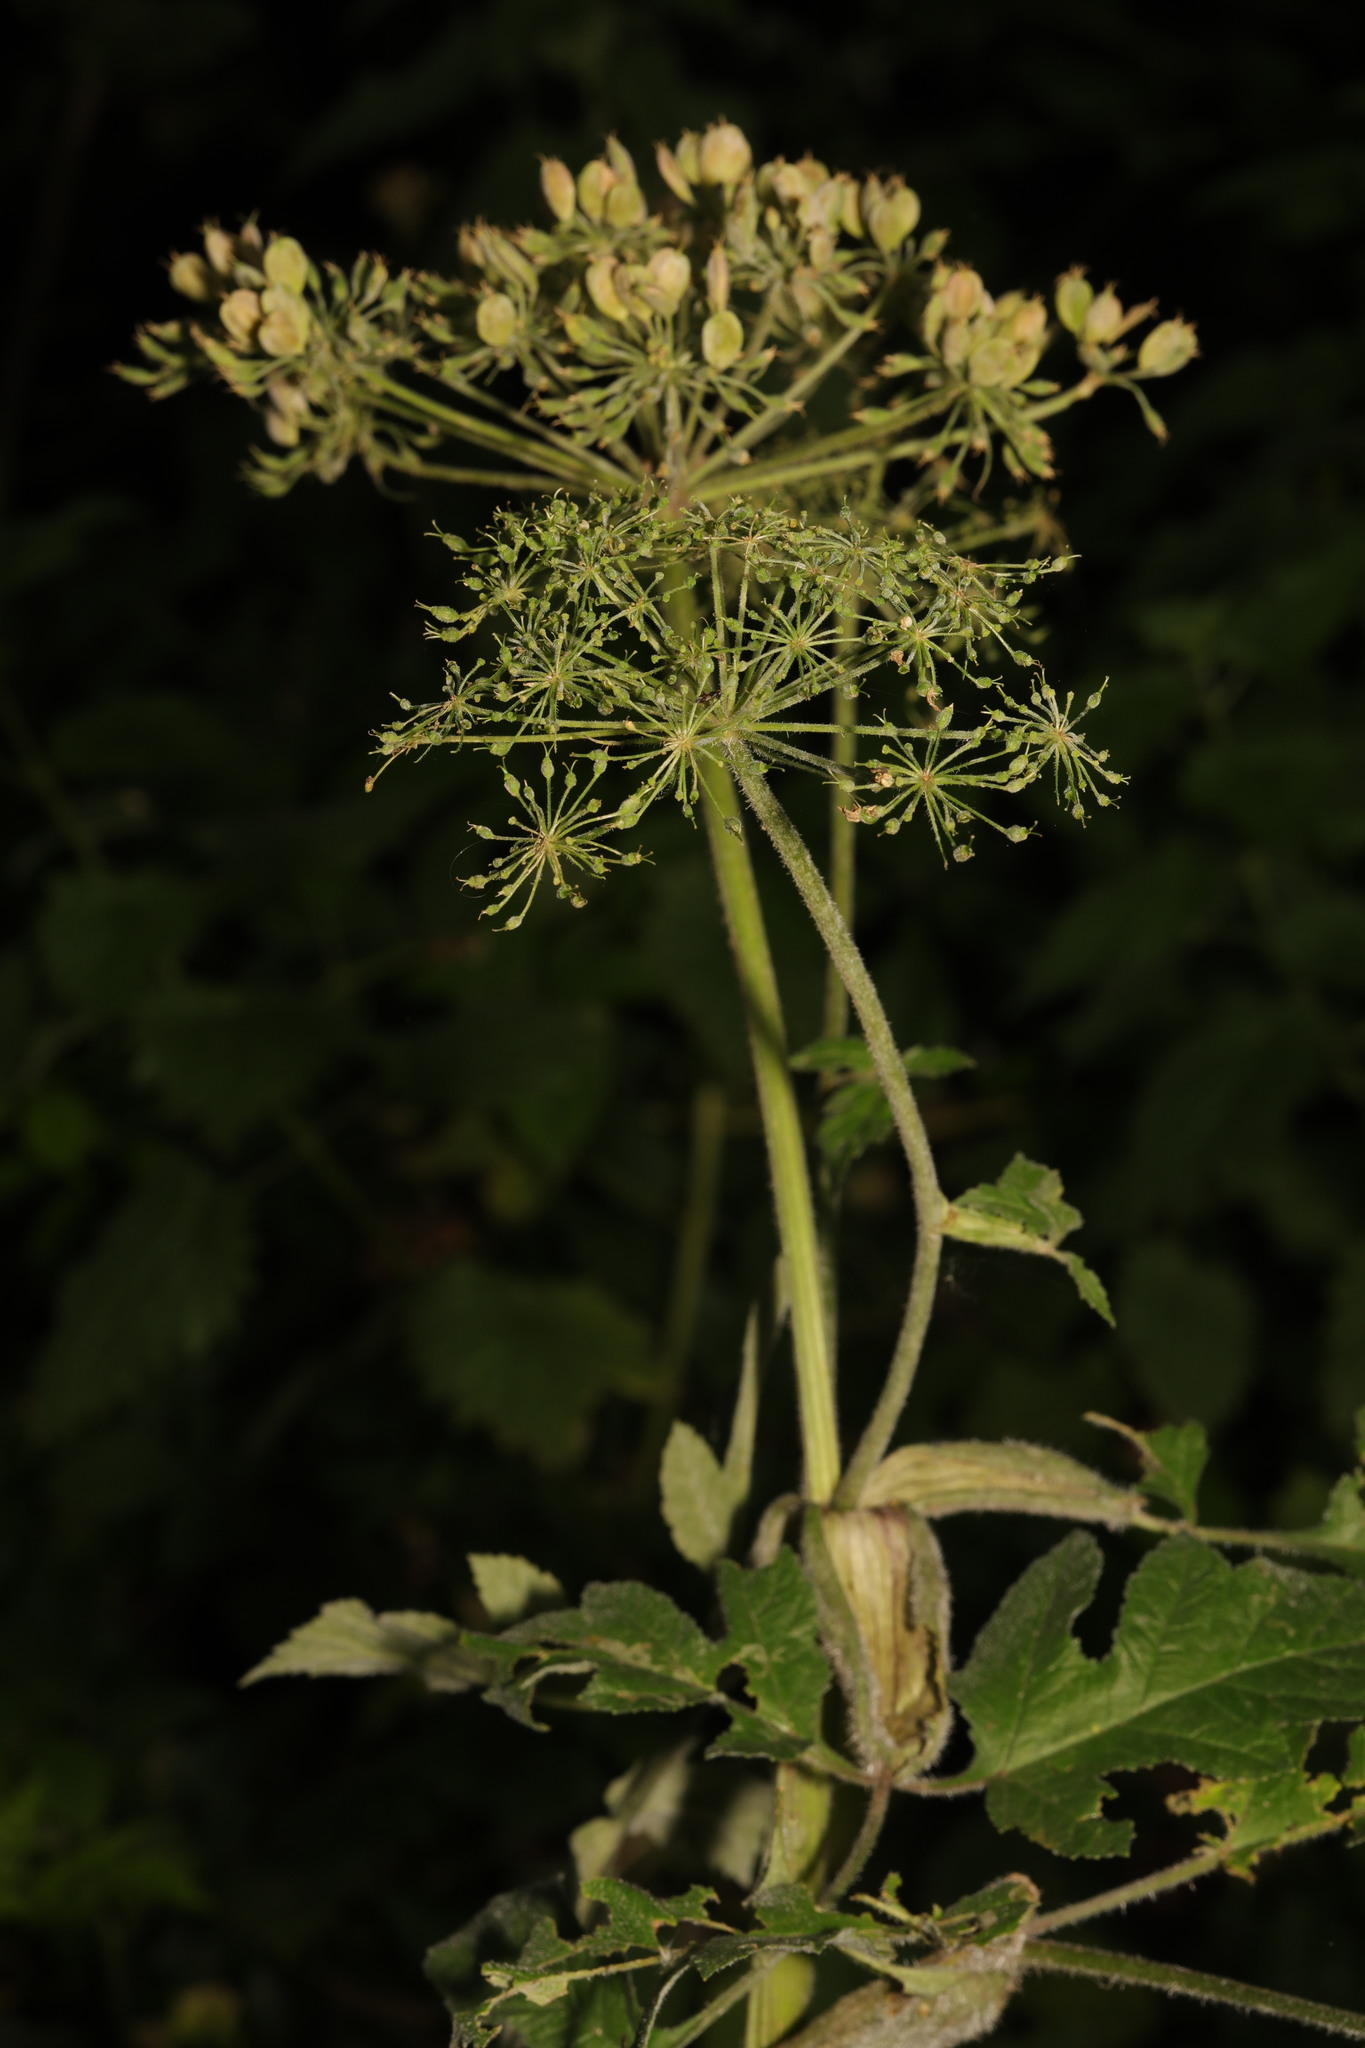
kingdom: Plantae
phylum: Tracheophyta
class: Magnoliopsida
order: Apiales
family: Apiaceae
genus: Heracleum
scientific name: Heracleum sphondylium
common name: Hogweed
